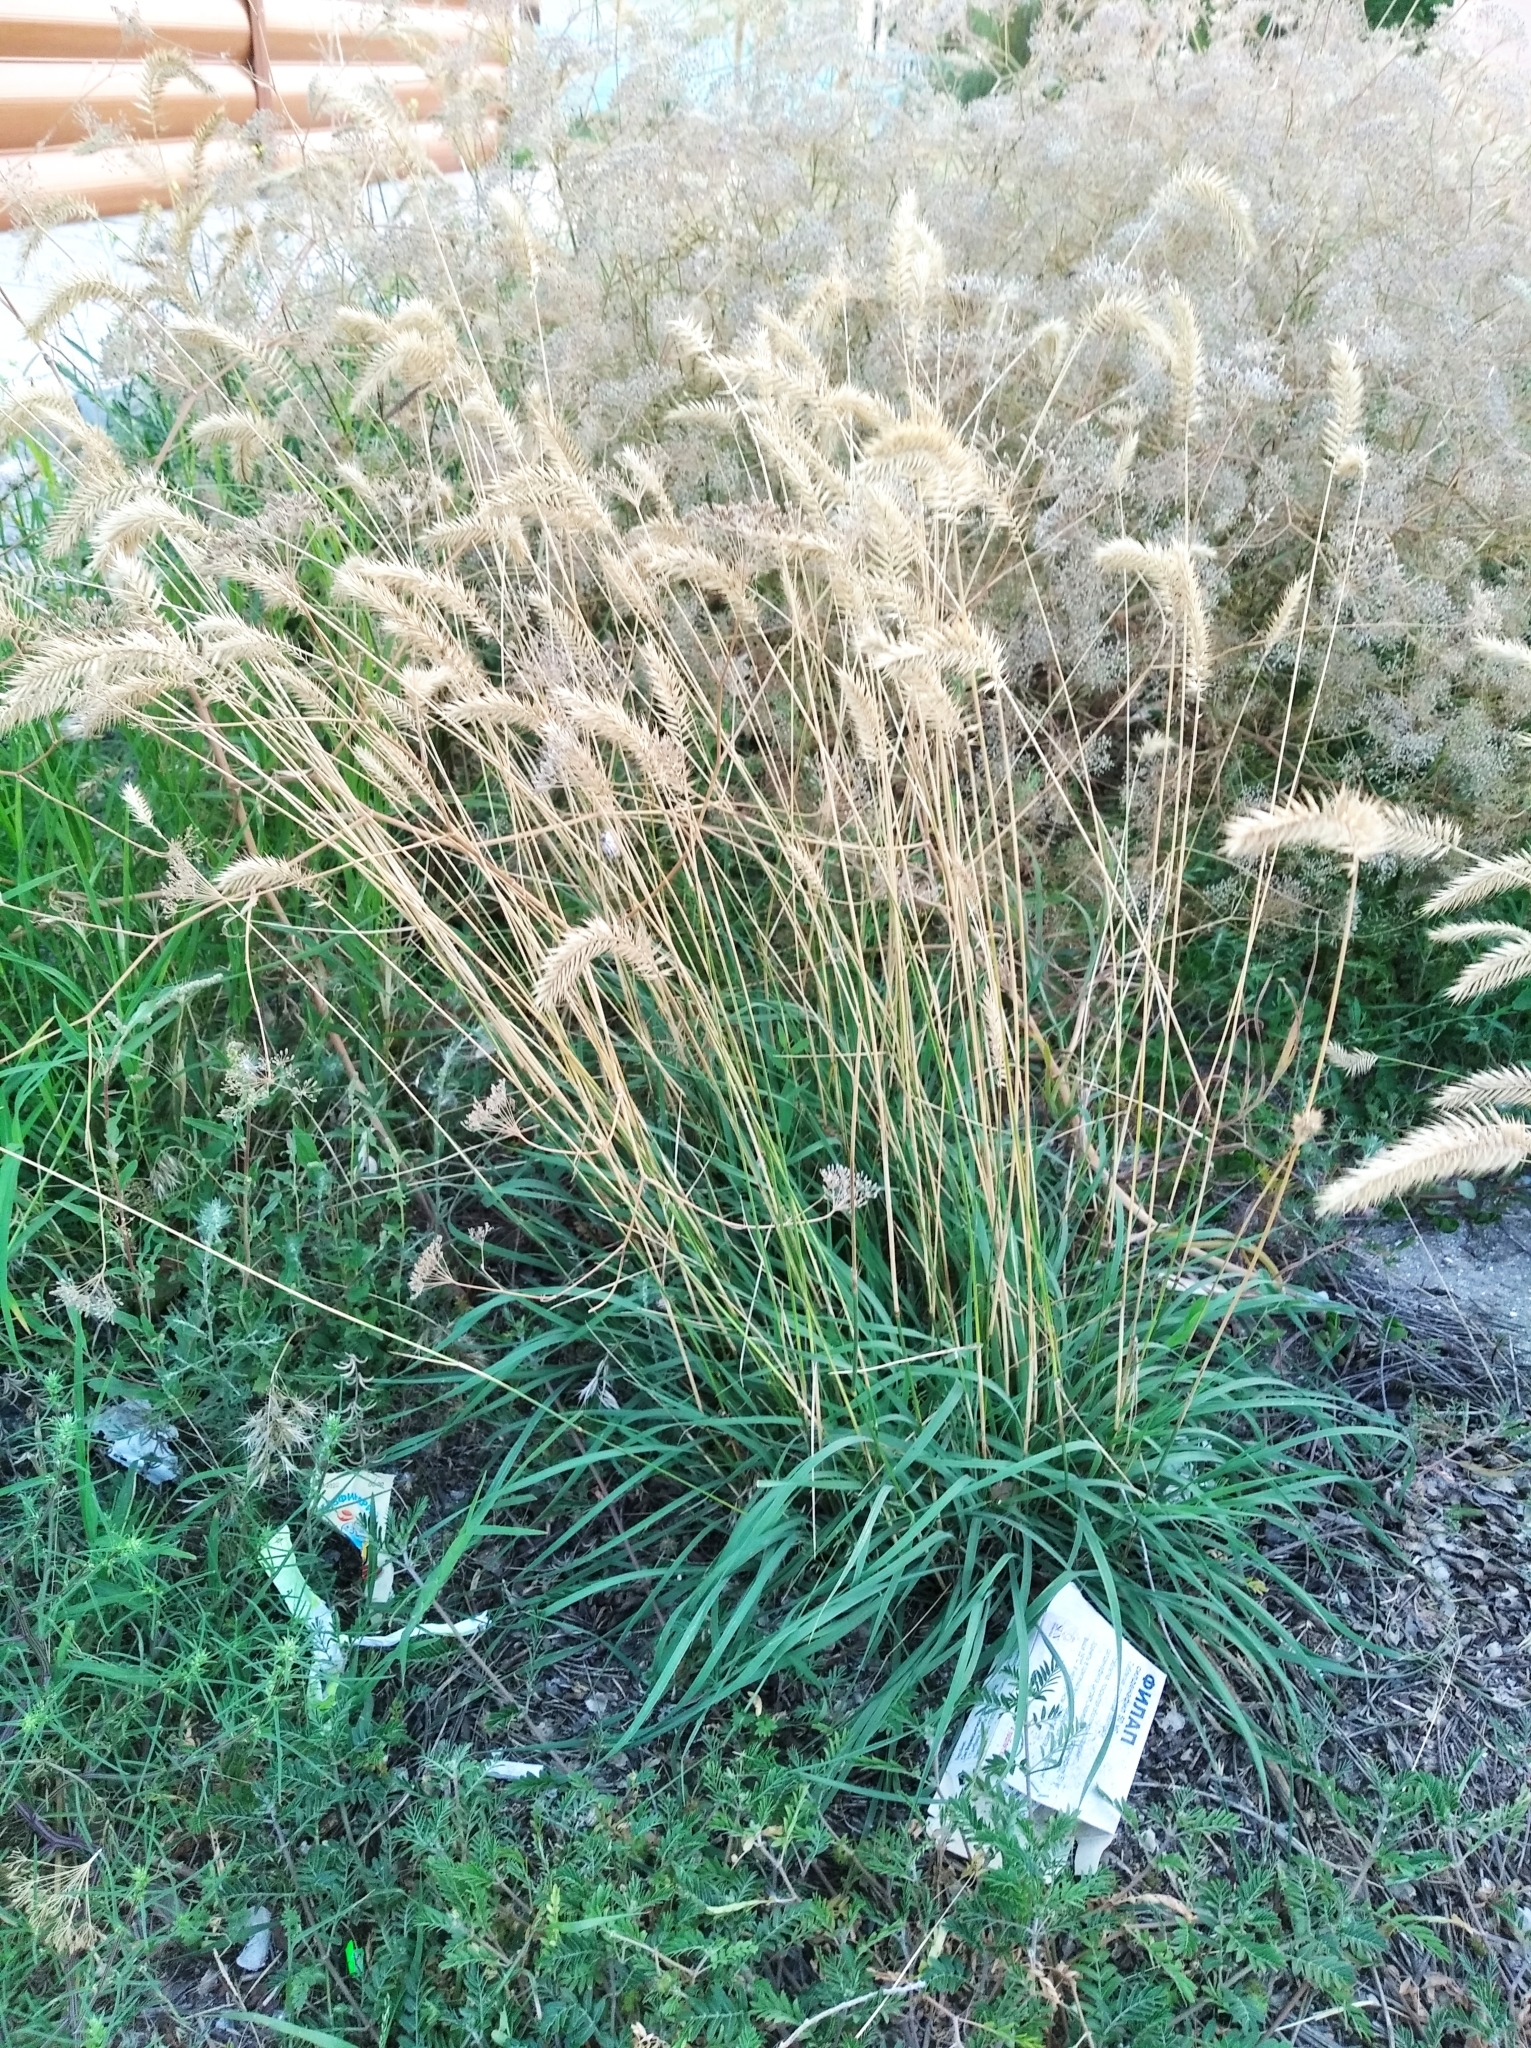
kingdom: Plantae
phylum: Tracheophyta
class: Liliopsida
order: Poales
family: Poaceae
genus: Agropyron
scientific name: Agropyron cristatum
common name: Crested wheatgrass
